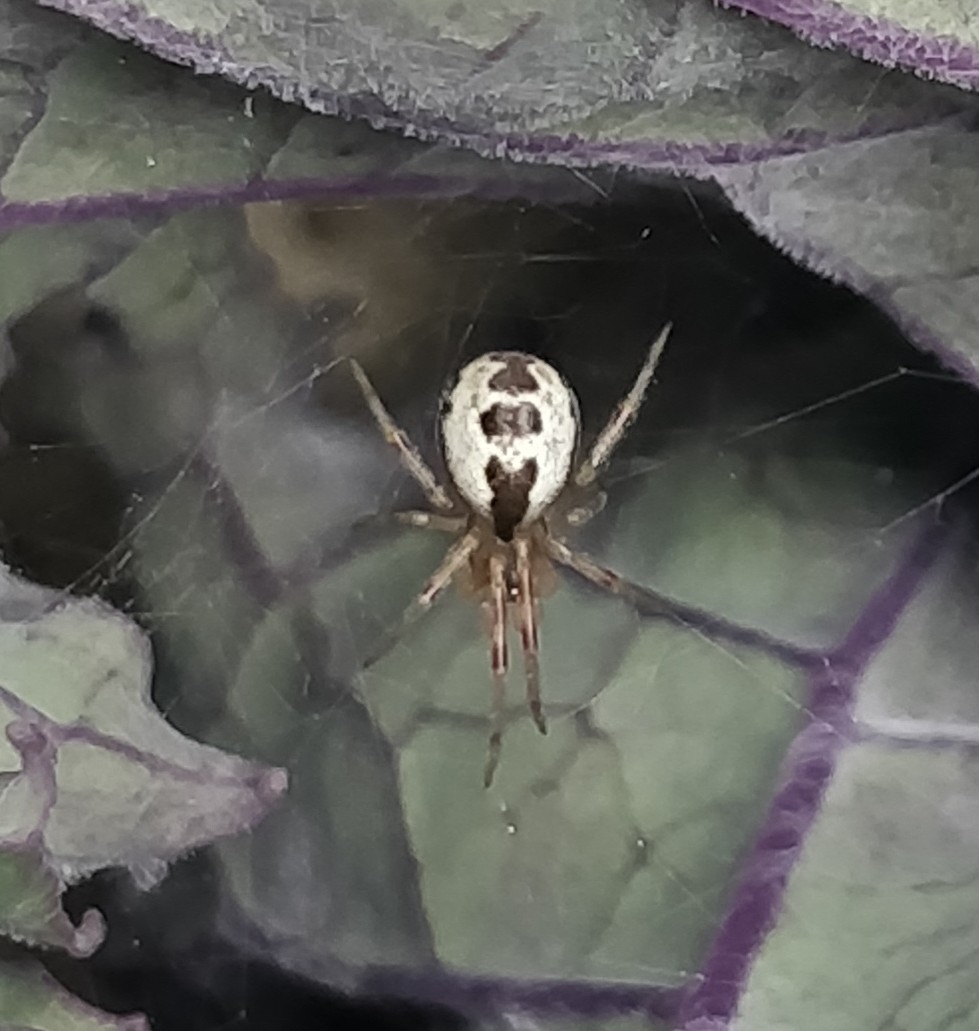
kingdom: Animalia
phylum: Arthropoda
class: Arachnida
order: Araneae
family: Theridiidae
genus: Kochiura
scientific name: Kochiura aulica
